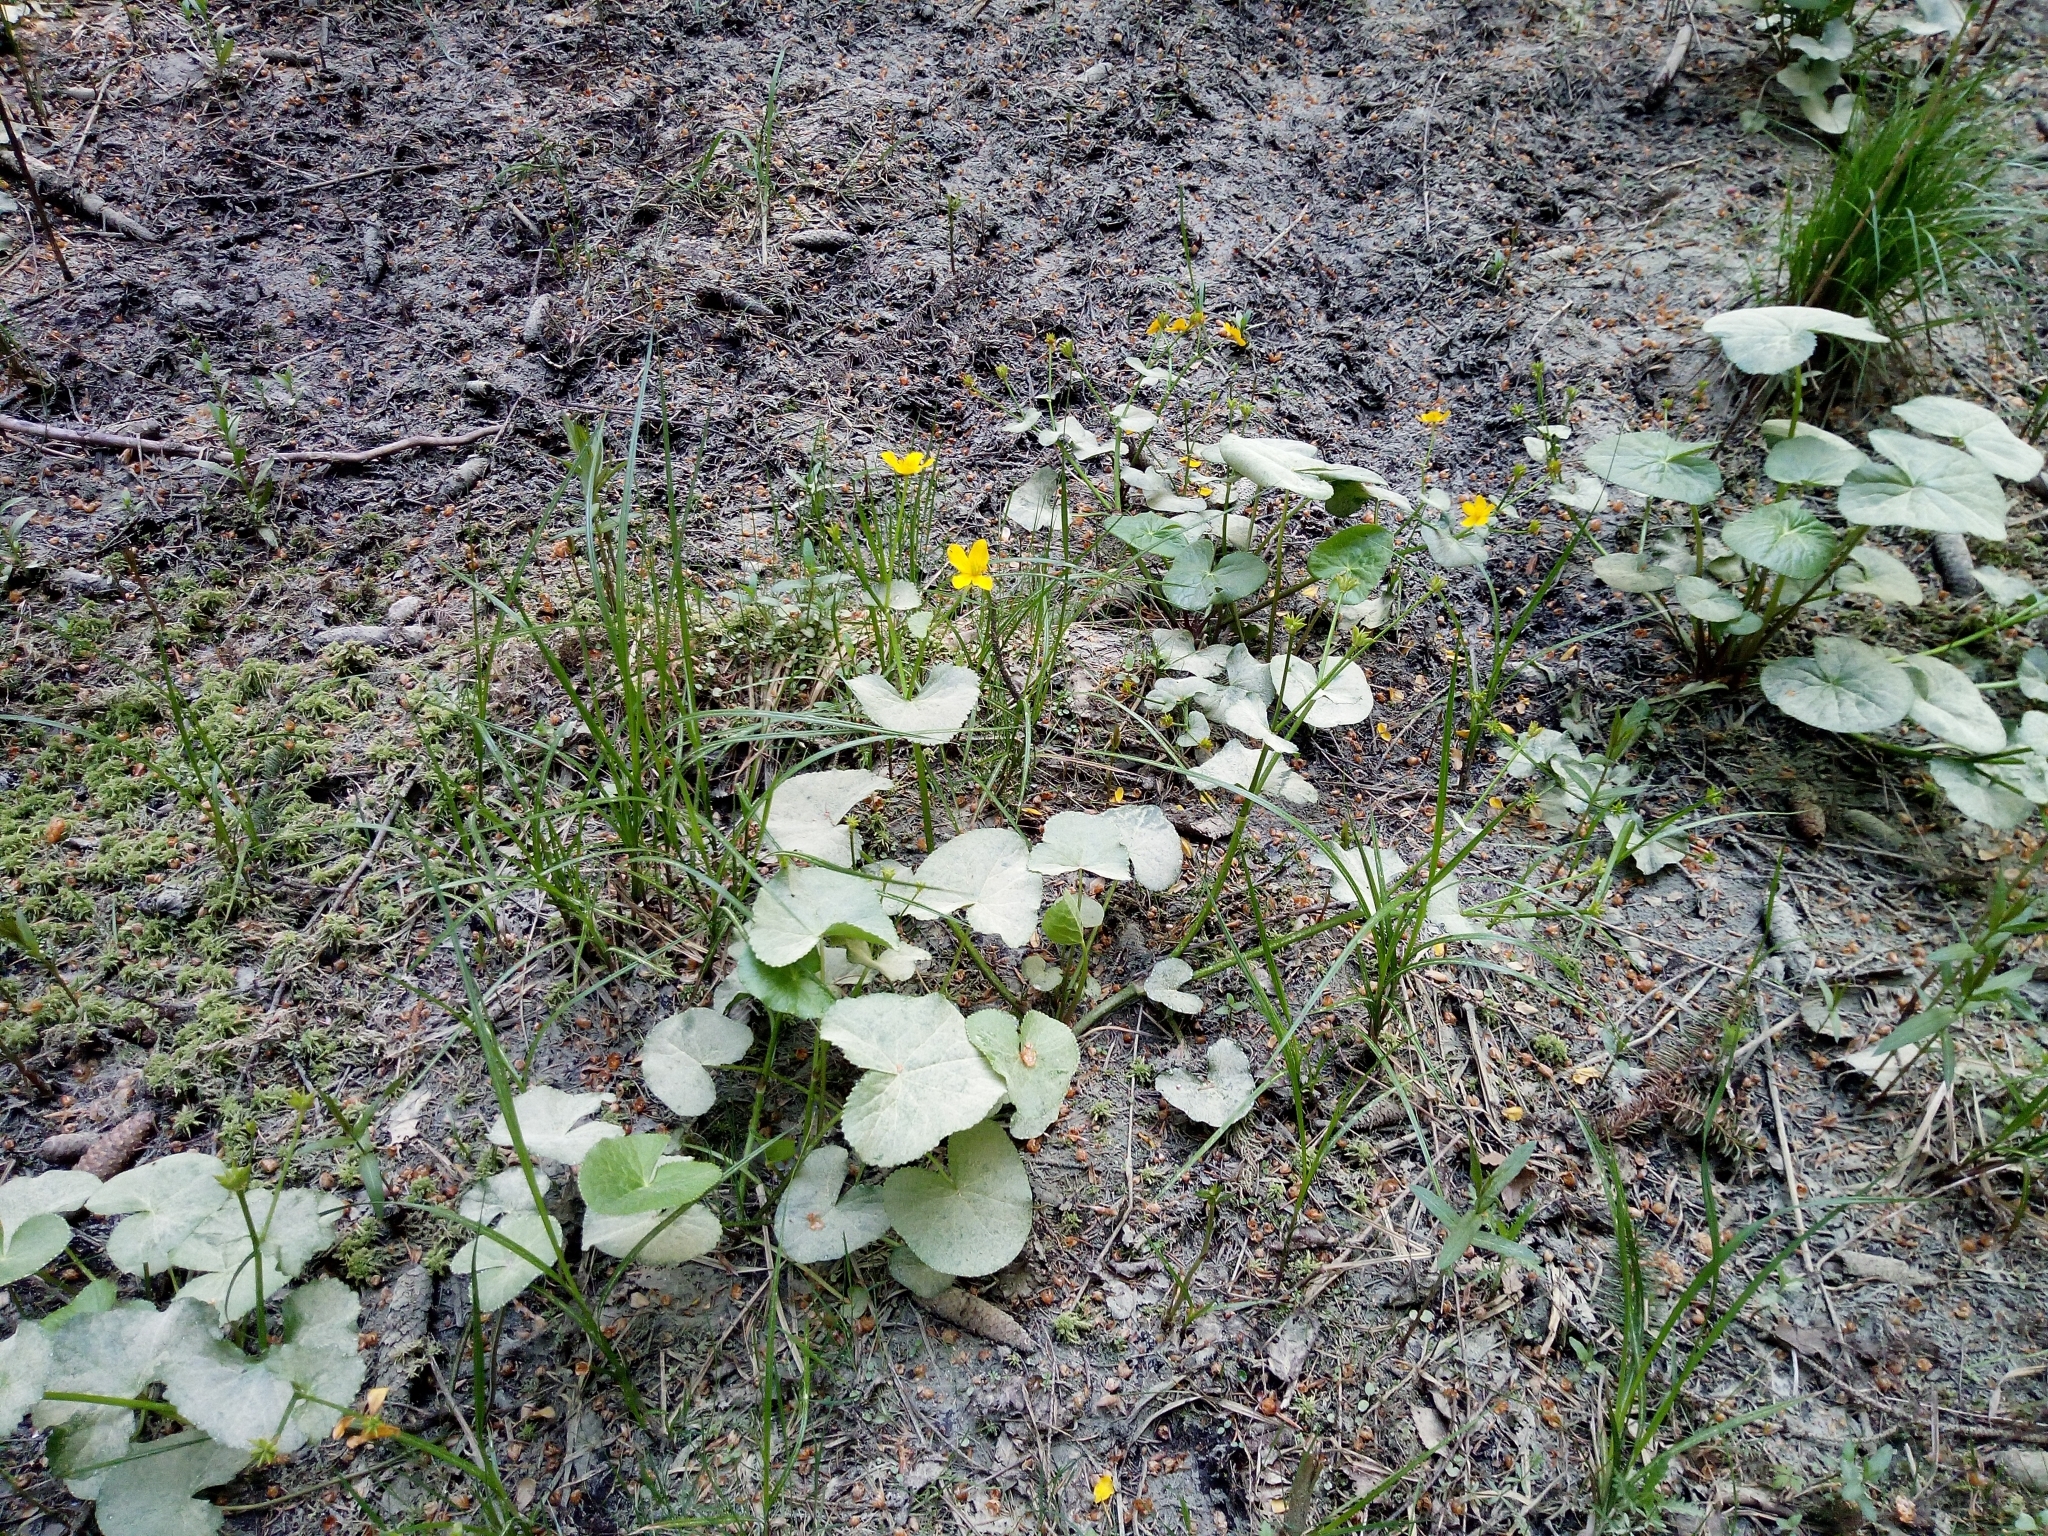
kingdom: Plantae
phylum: Tracheophyta
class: Magnoliopsida
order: Ranunculales
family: Ranunculaceae
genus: Caltha
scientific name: Caltha palustris
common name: Marsh marigold
